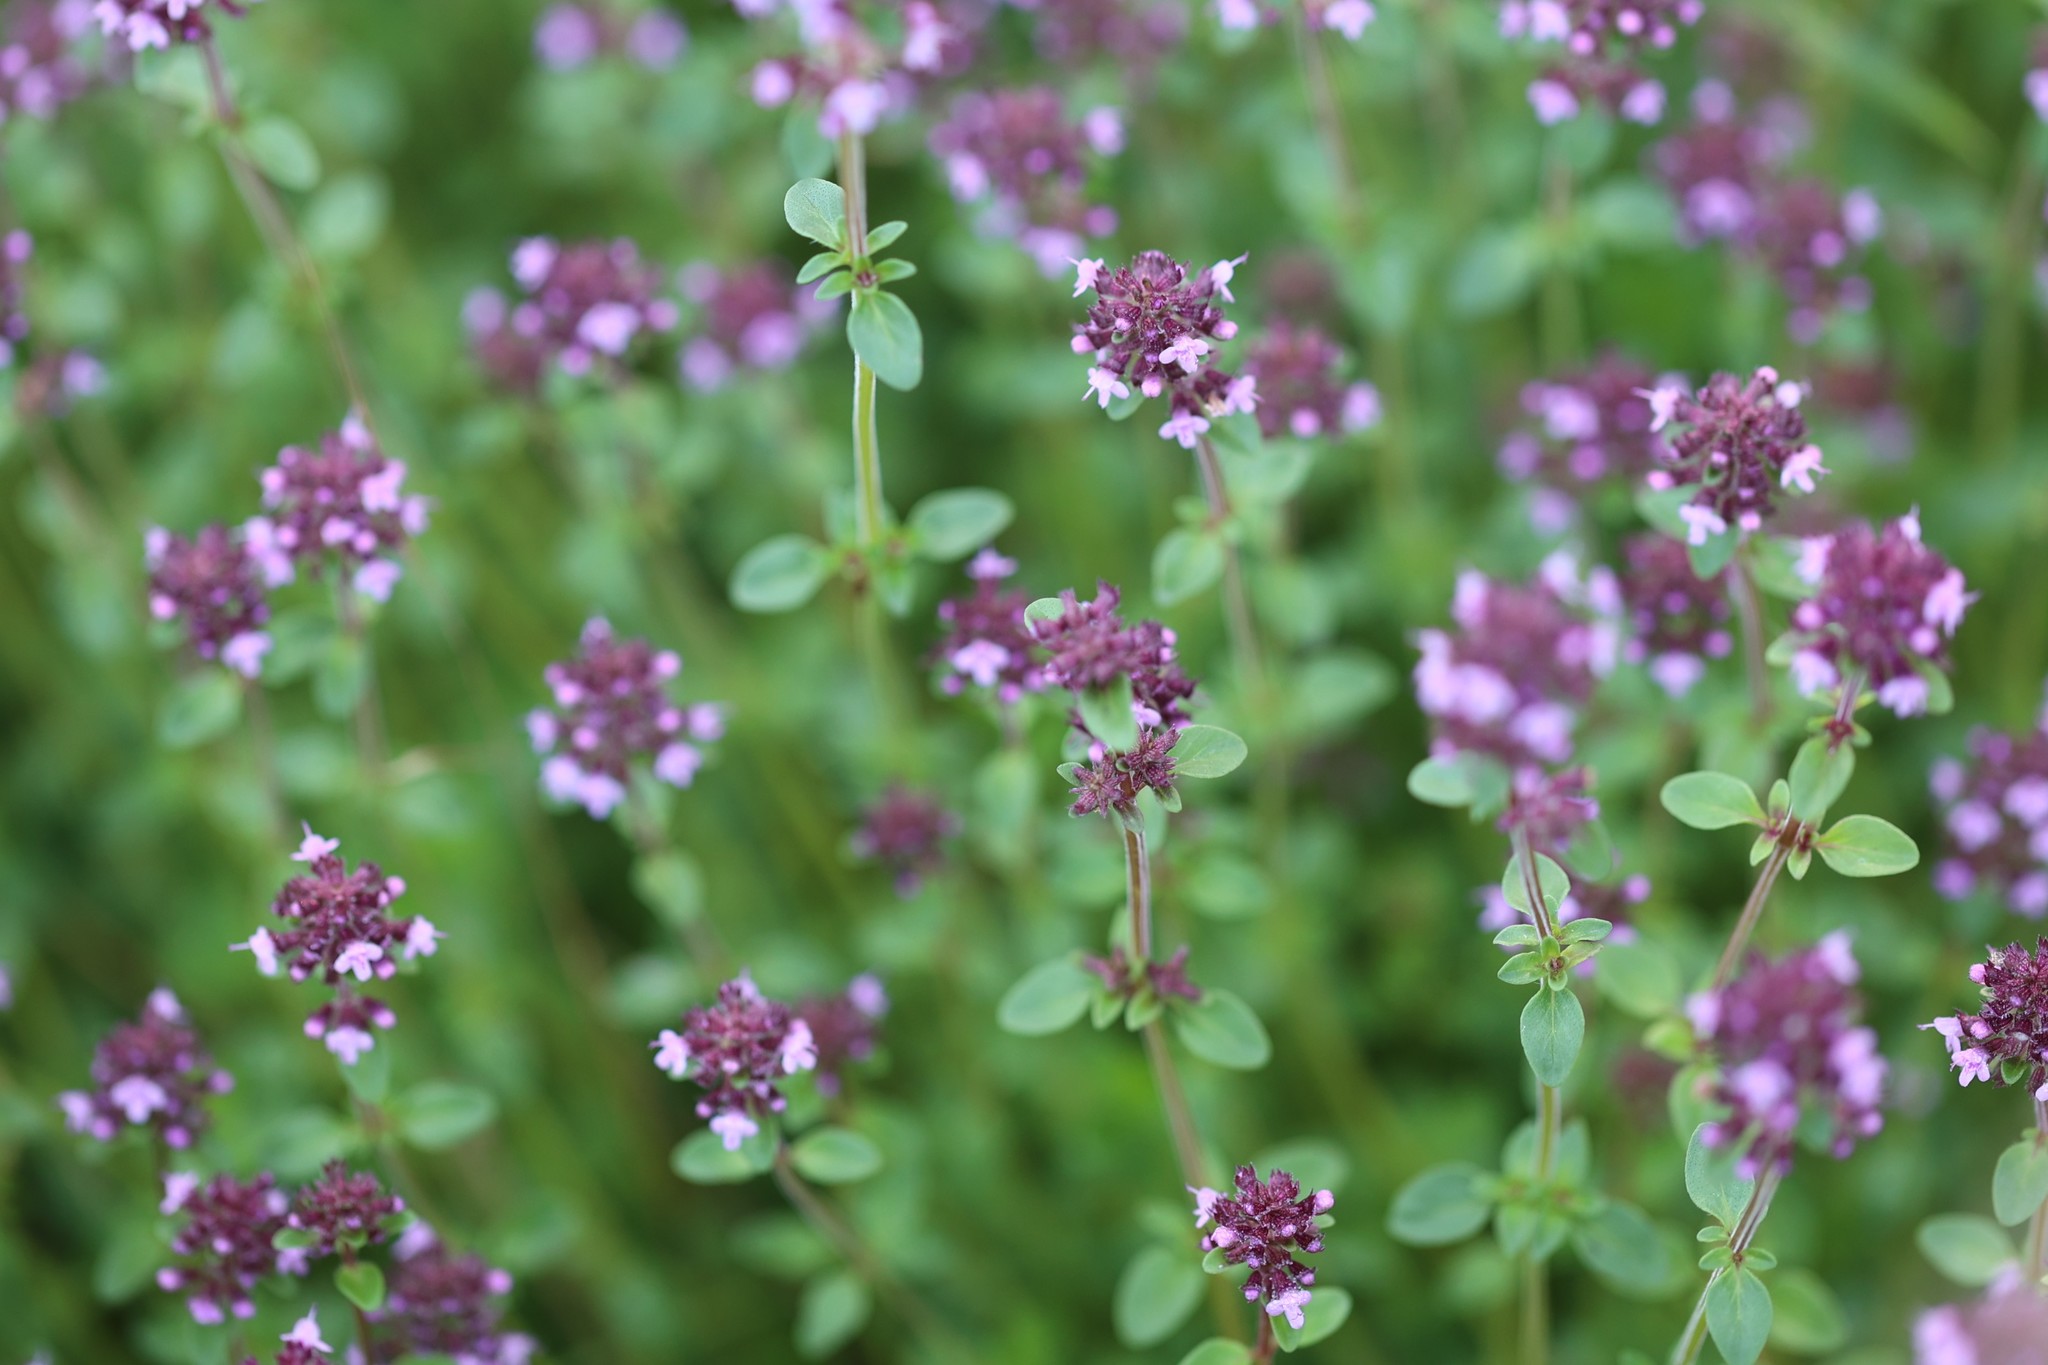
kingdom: Plantae
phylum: Tracheophyta
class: Magnoliopsida
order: Lamiales
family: Lamiaceae
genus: Thymus
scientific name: Thymus pulegioides
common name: Large thyme
